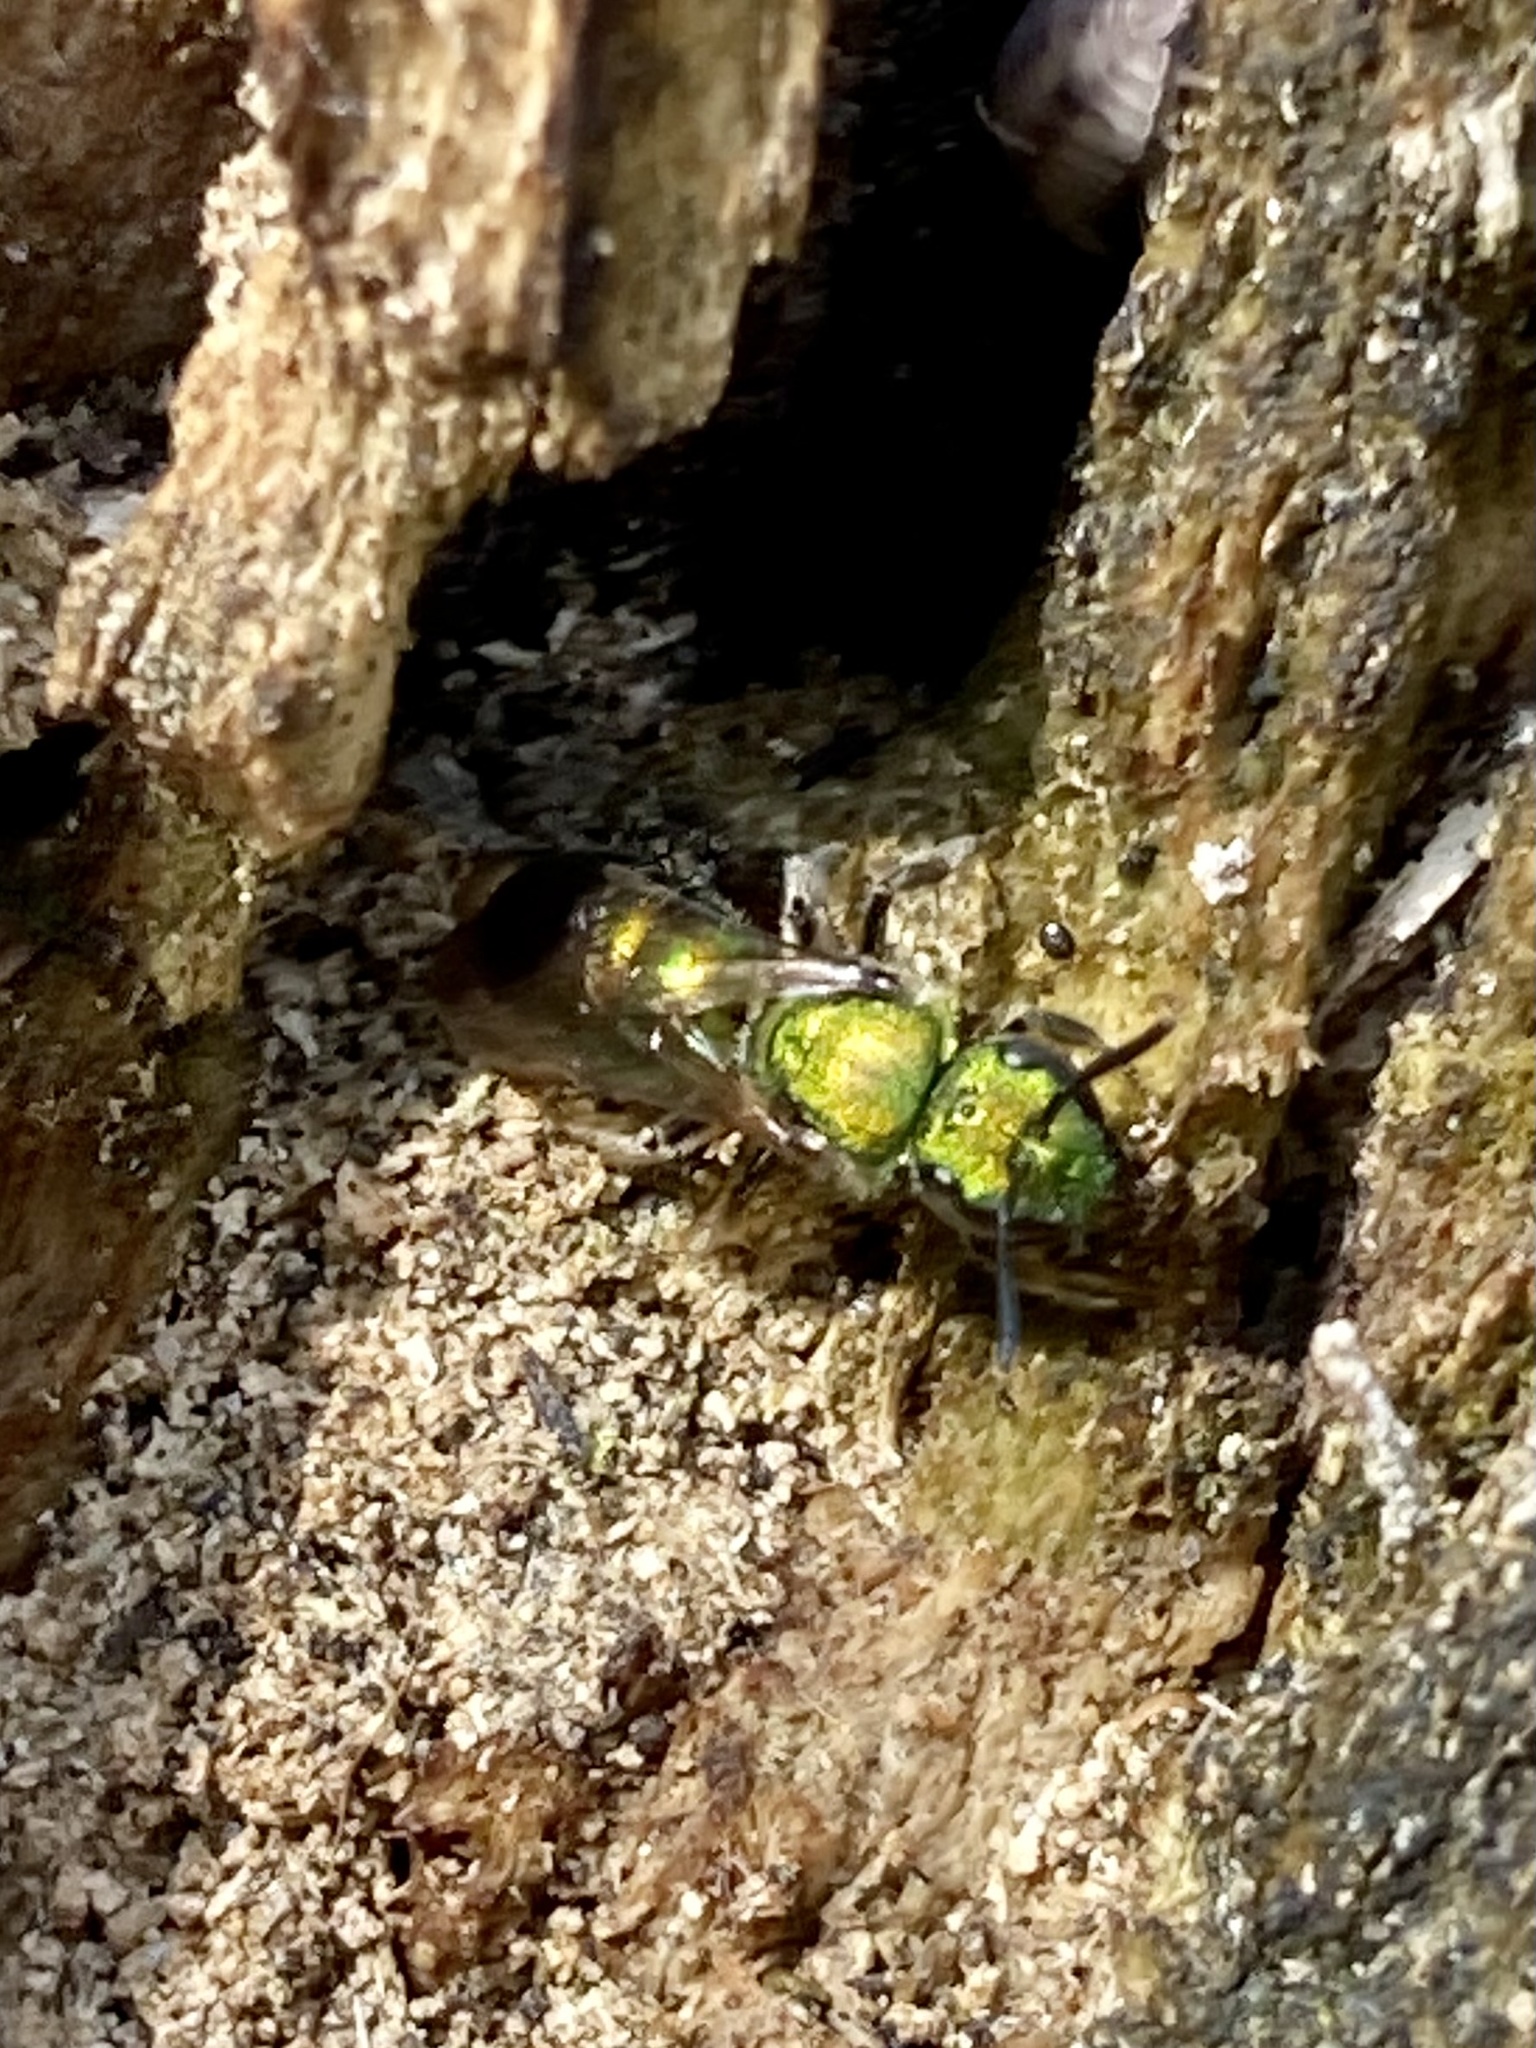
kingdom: Animalia
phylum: Arthropoda
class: Insecta
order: Hymenoptera
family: Halictidae
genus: Augochlora
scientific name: Augochlora pura
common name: Pure green sweat bee
